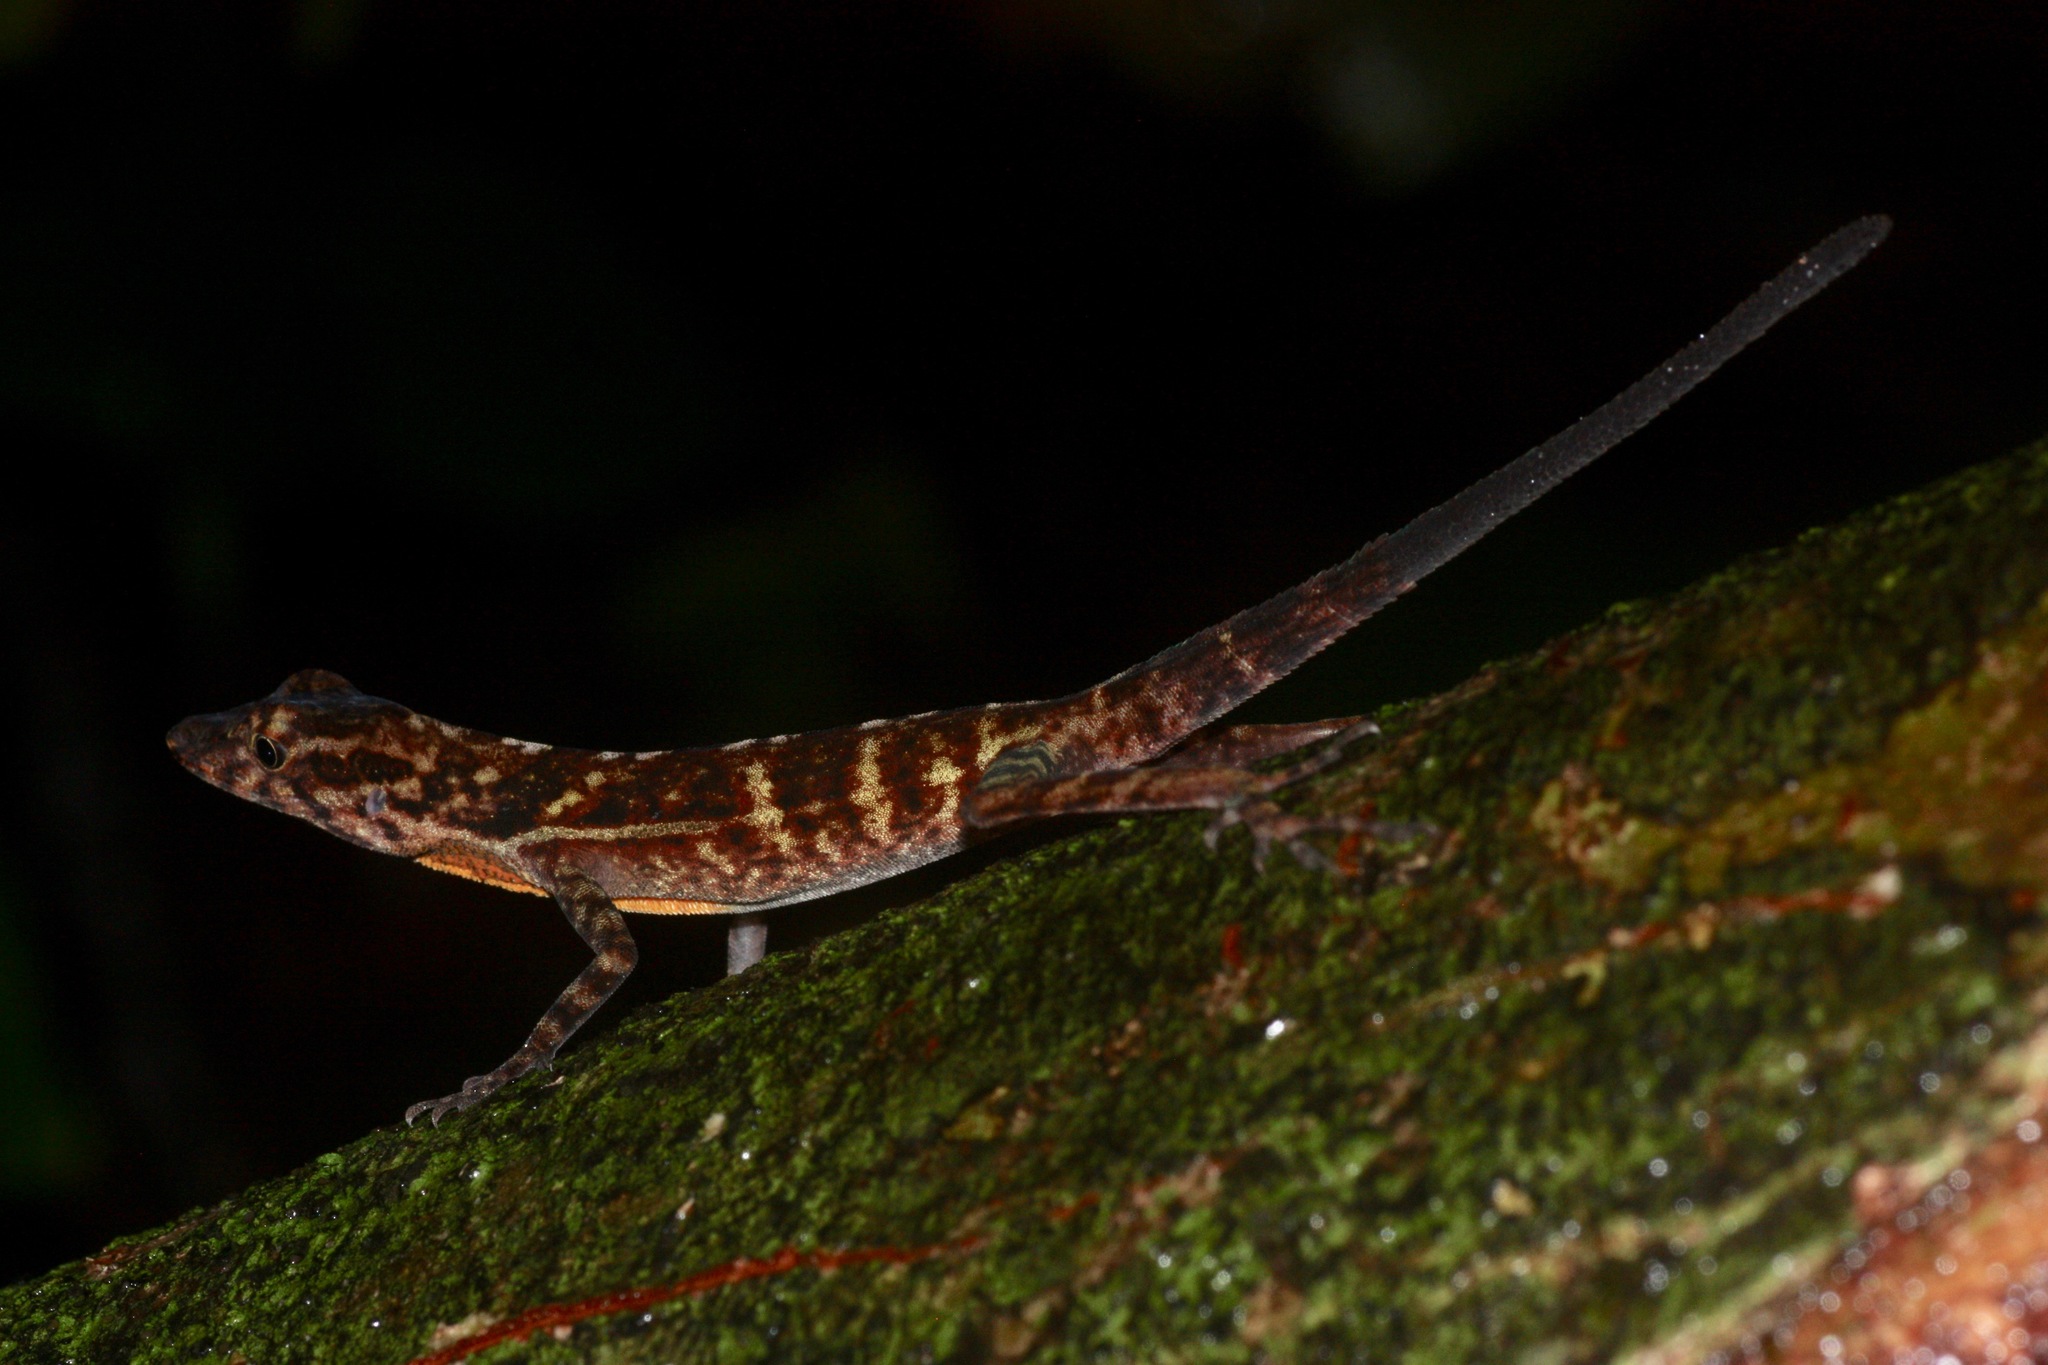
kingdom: Animalia
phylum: Chordata
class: Squamata
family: Dactyloidae
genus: Anolis
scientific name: Anolis osa
